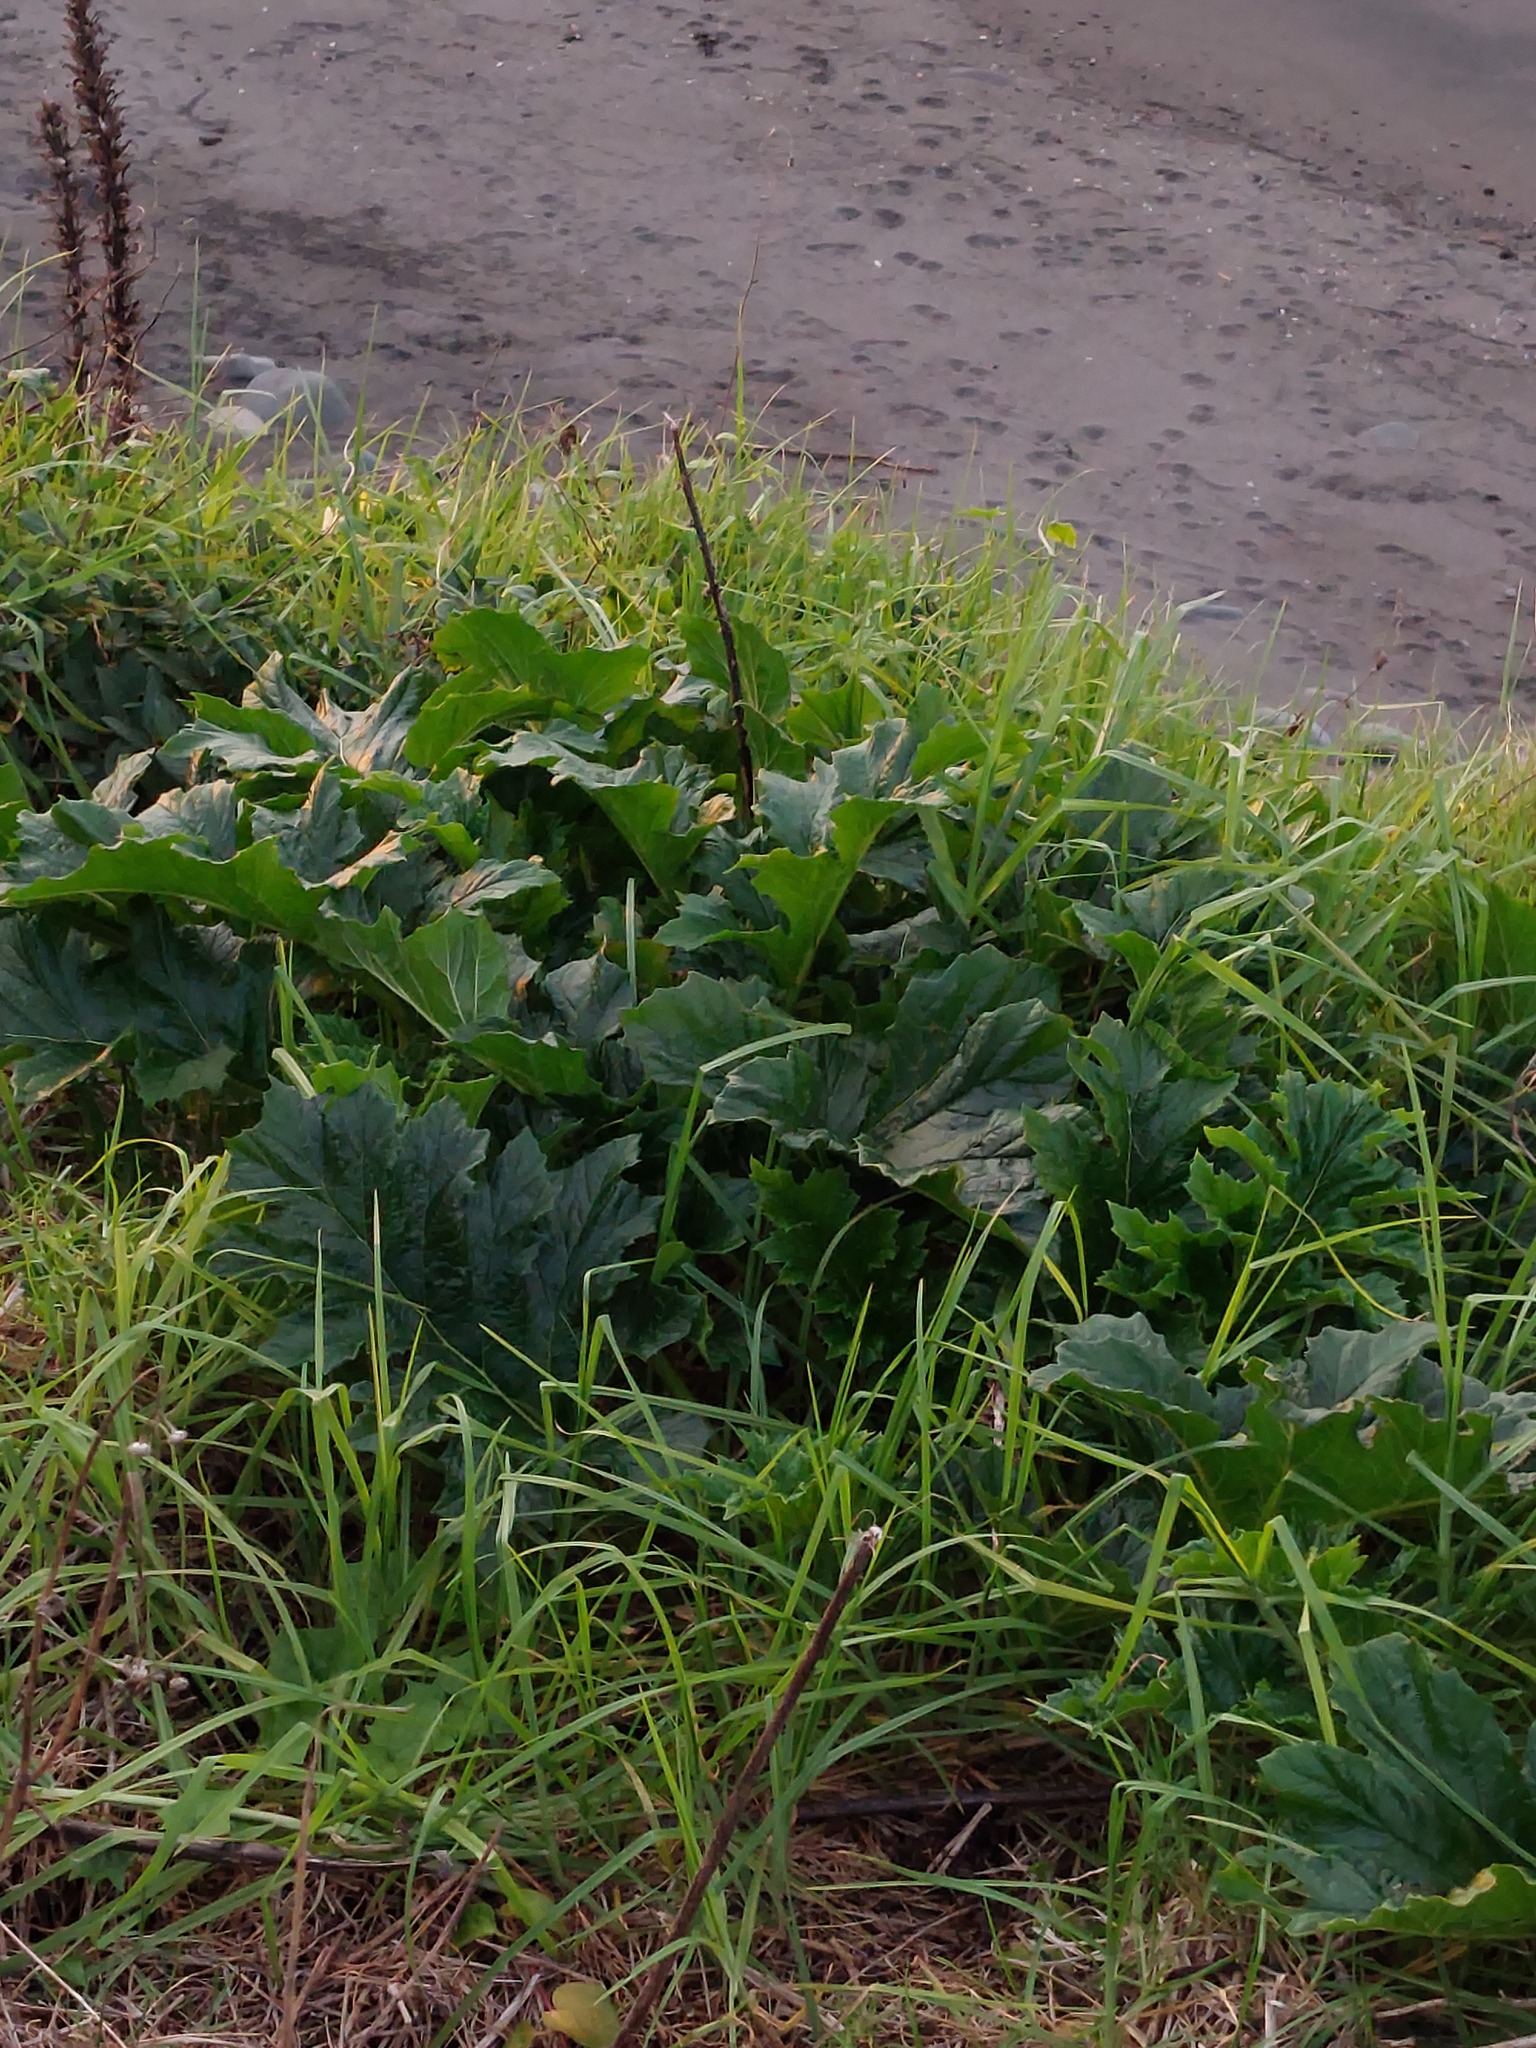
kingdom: Plantae
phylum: Tracheophyta
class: Magnoliopsida
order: Lamiales
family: Acanthaceae
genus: Acanthus
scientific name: Acanthus mollis
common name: Bear's-breech
